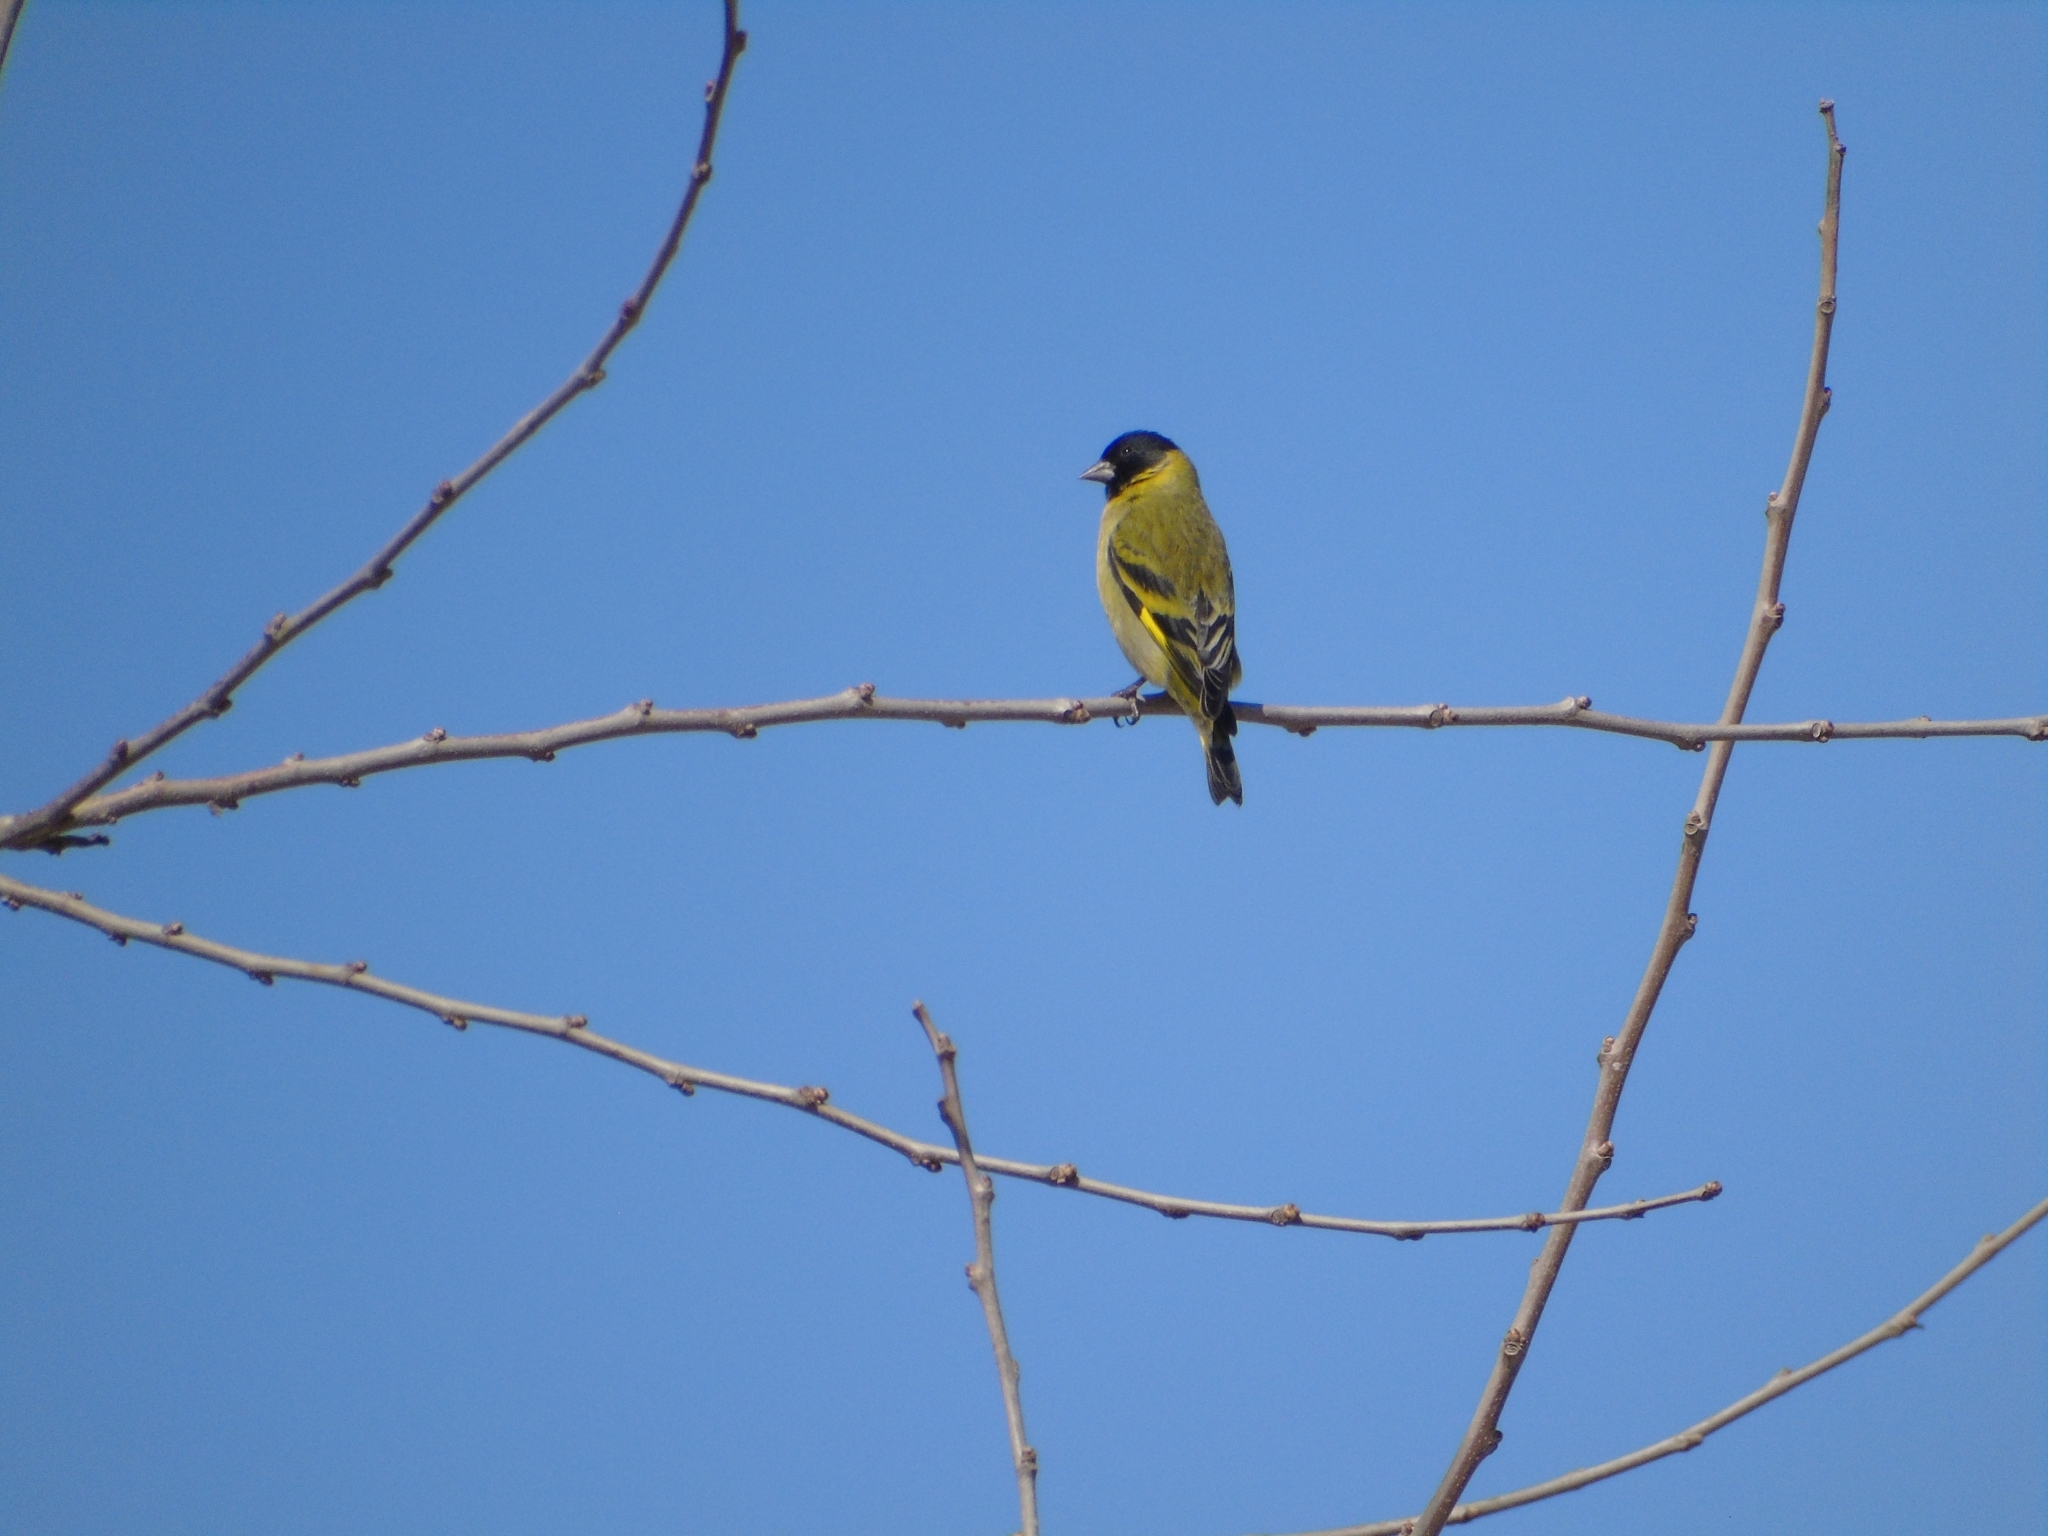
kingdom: Animalia
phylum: Chordata
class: Aves
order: Passeriformes
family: Fringillidae
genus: Spinus
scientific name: Spinus magellanicus
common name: Hooded siskin
